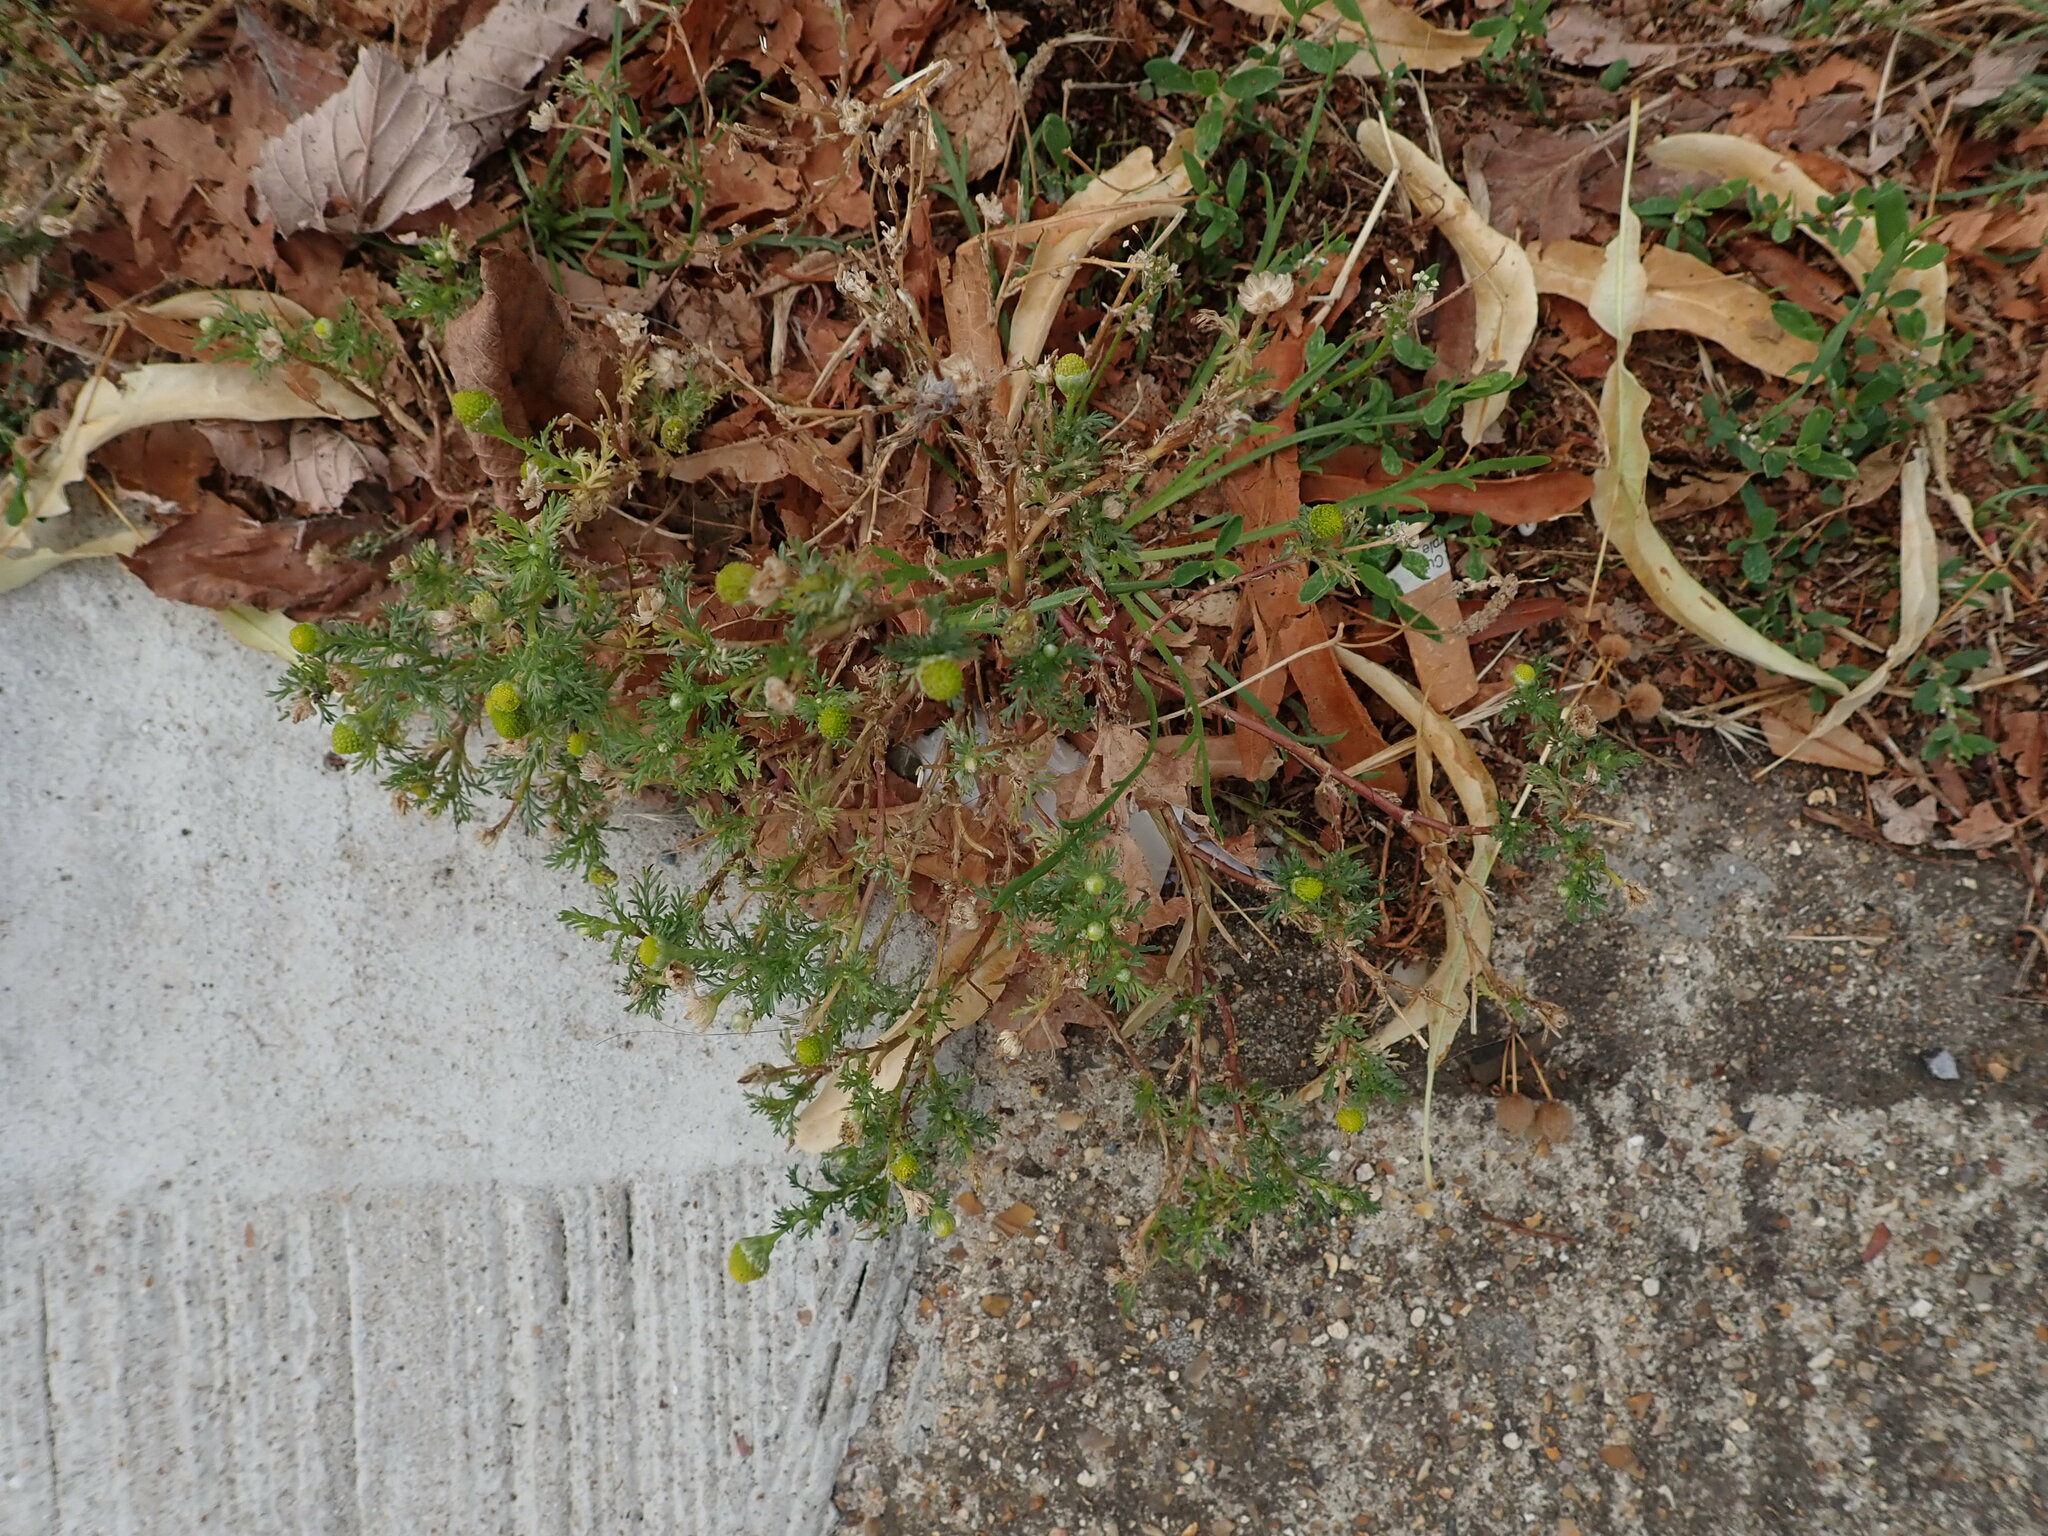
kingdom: Plantae
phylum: Tracheophyta
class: Magnoliopsida
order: Asterales
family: Asteraceae
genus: Matricaria
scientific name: Matricaria discoidea
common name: Disc mayweed
